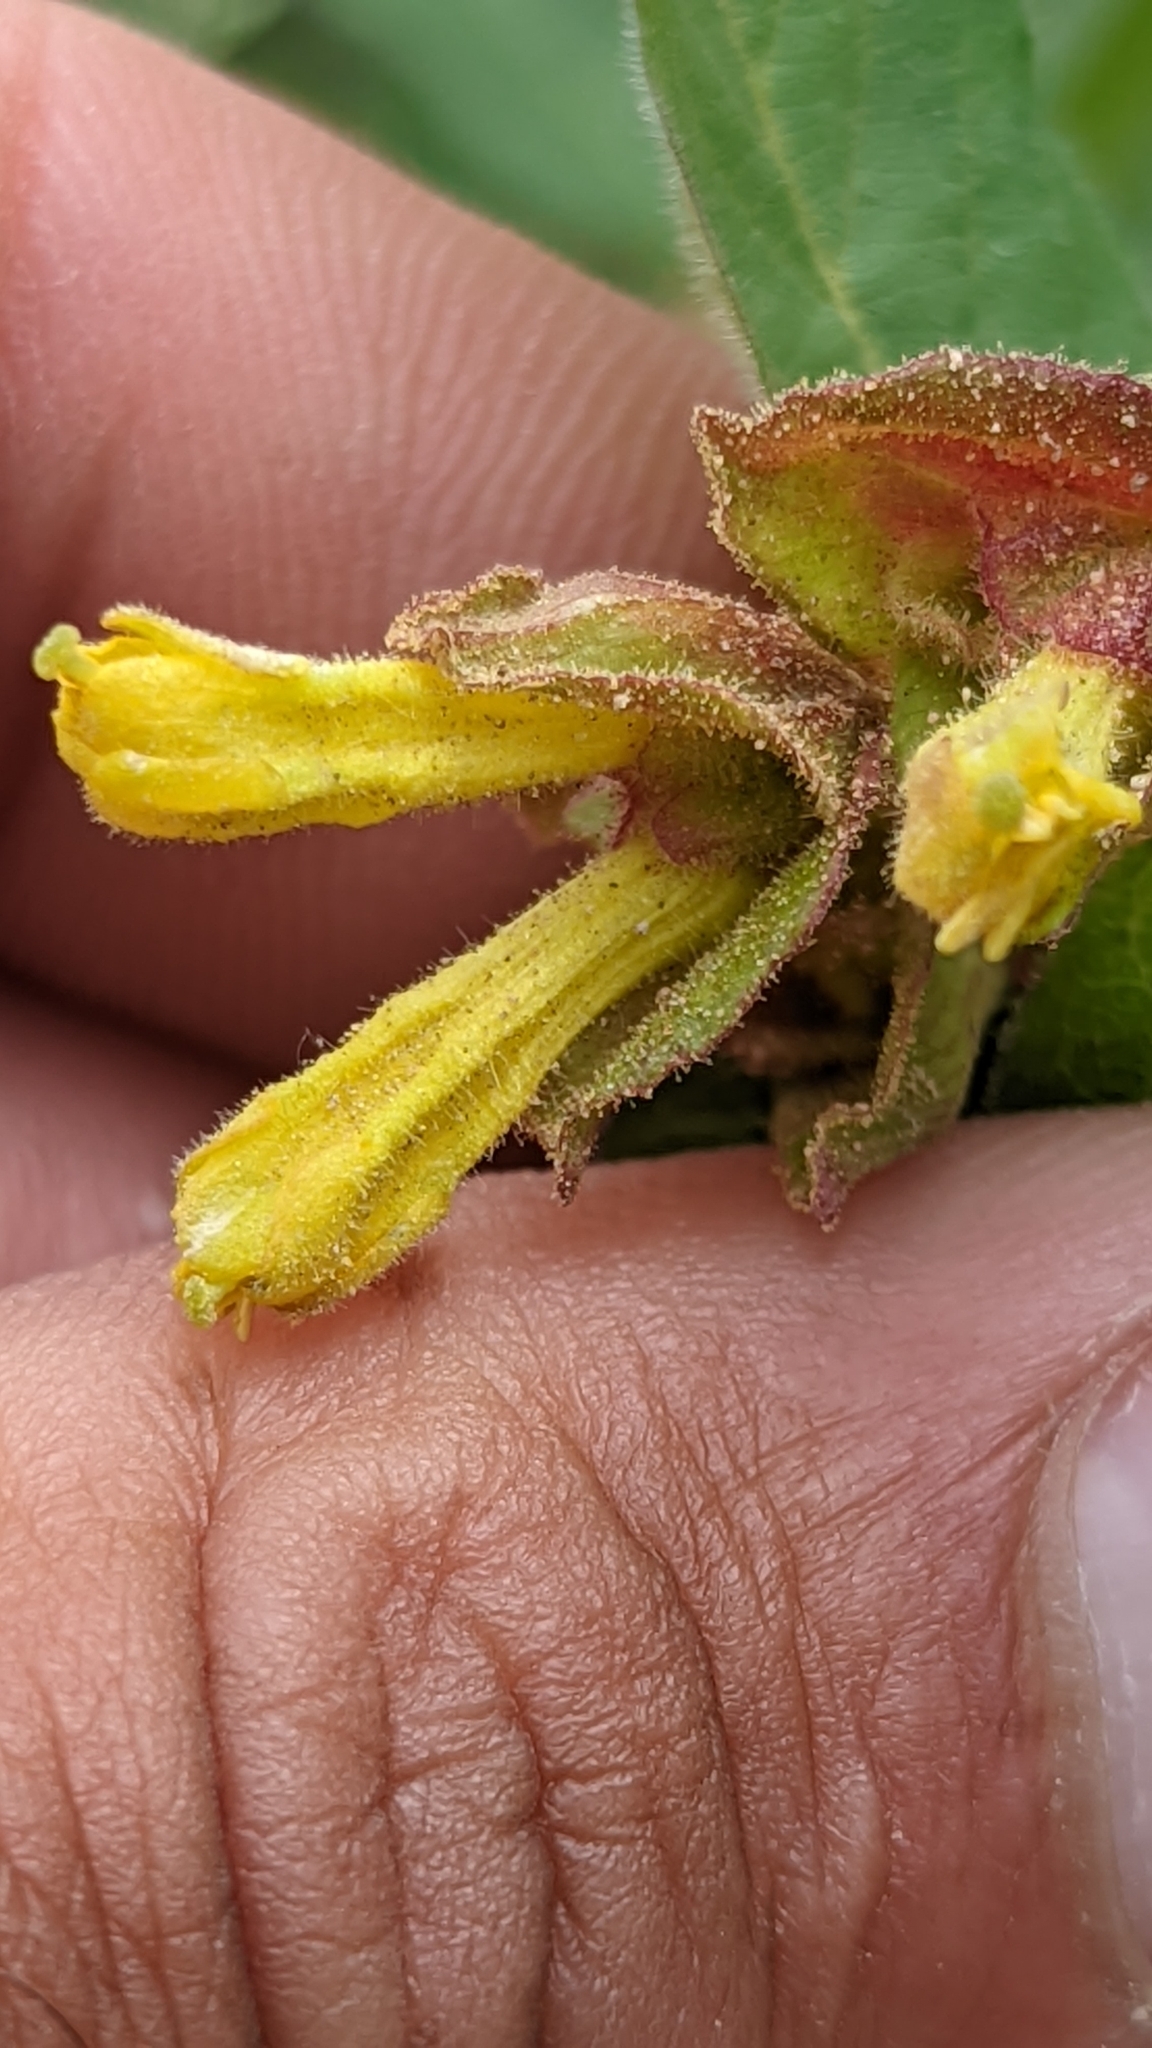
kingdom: Plantae
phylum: Tracheophyta
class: Magnoliopsida
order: Dipsacales
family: Caprifoliaceae
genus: Lonicera
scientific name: Lonicera involucrata
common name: Californian honeysuckle
